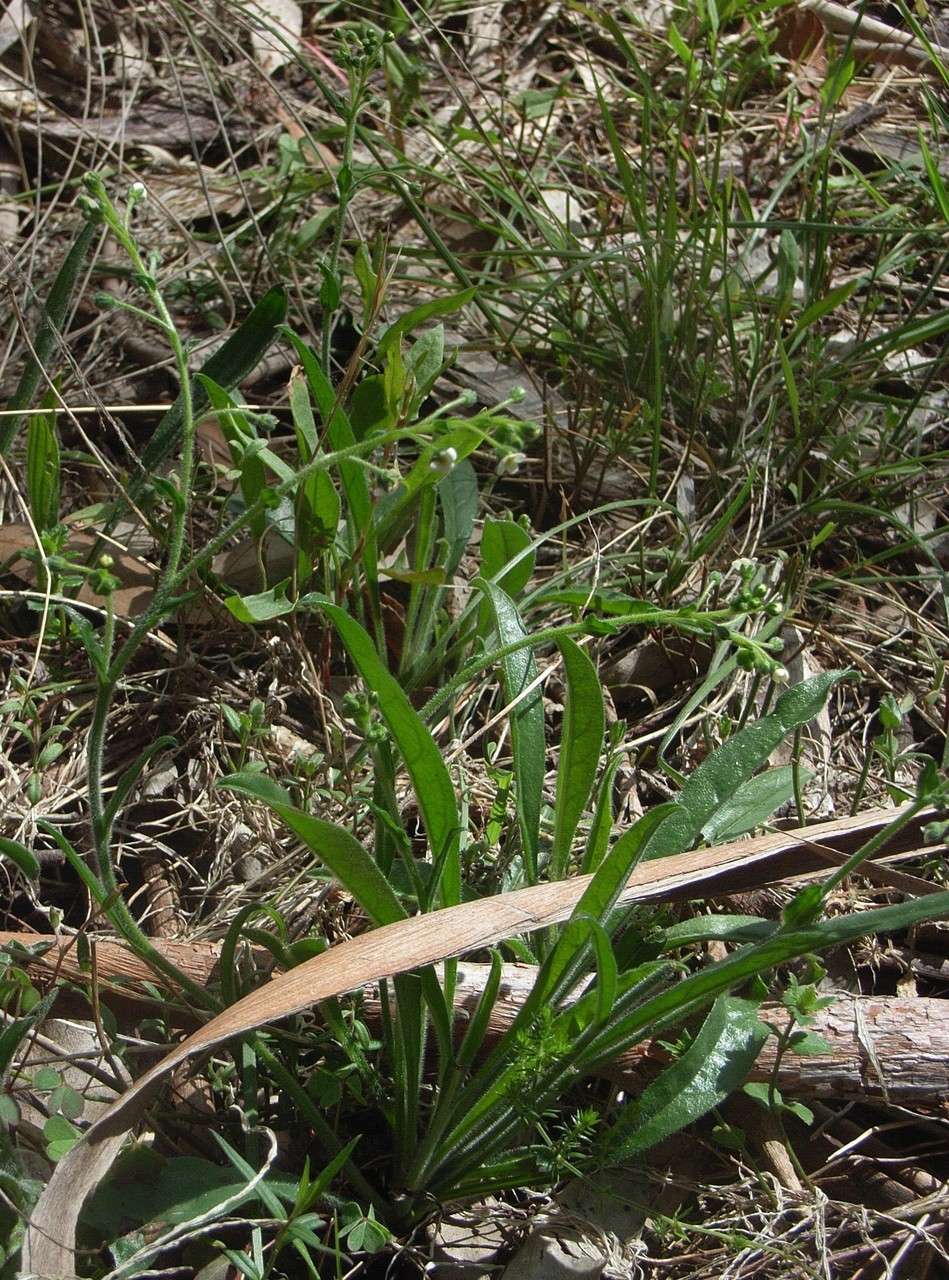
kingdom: Plantae
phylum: Tracheophyta
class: Magnoliopsida
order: Boraginales
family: Boraginaceae
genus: Hackelia
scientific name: Hackelia suaveolens
